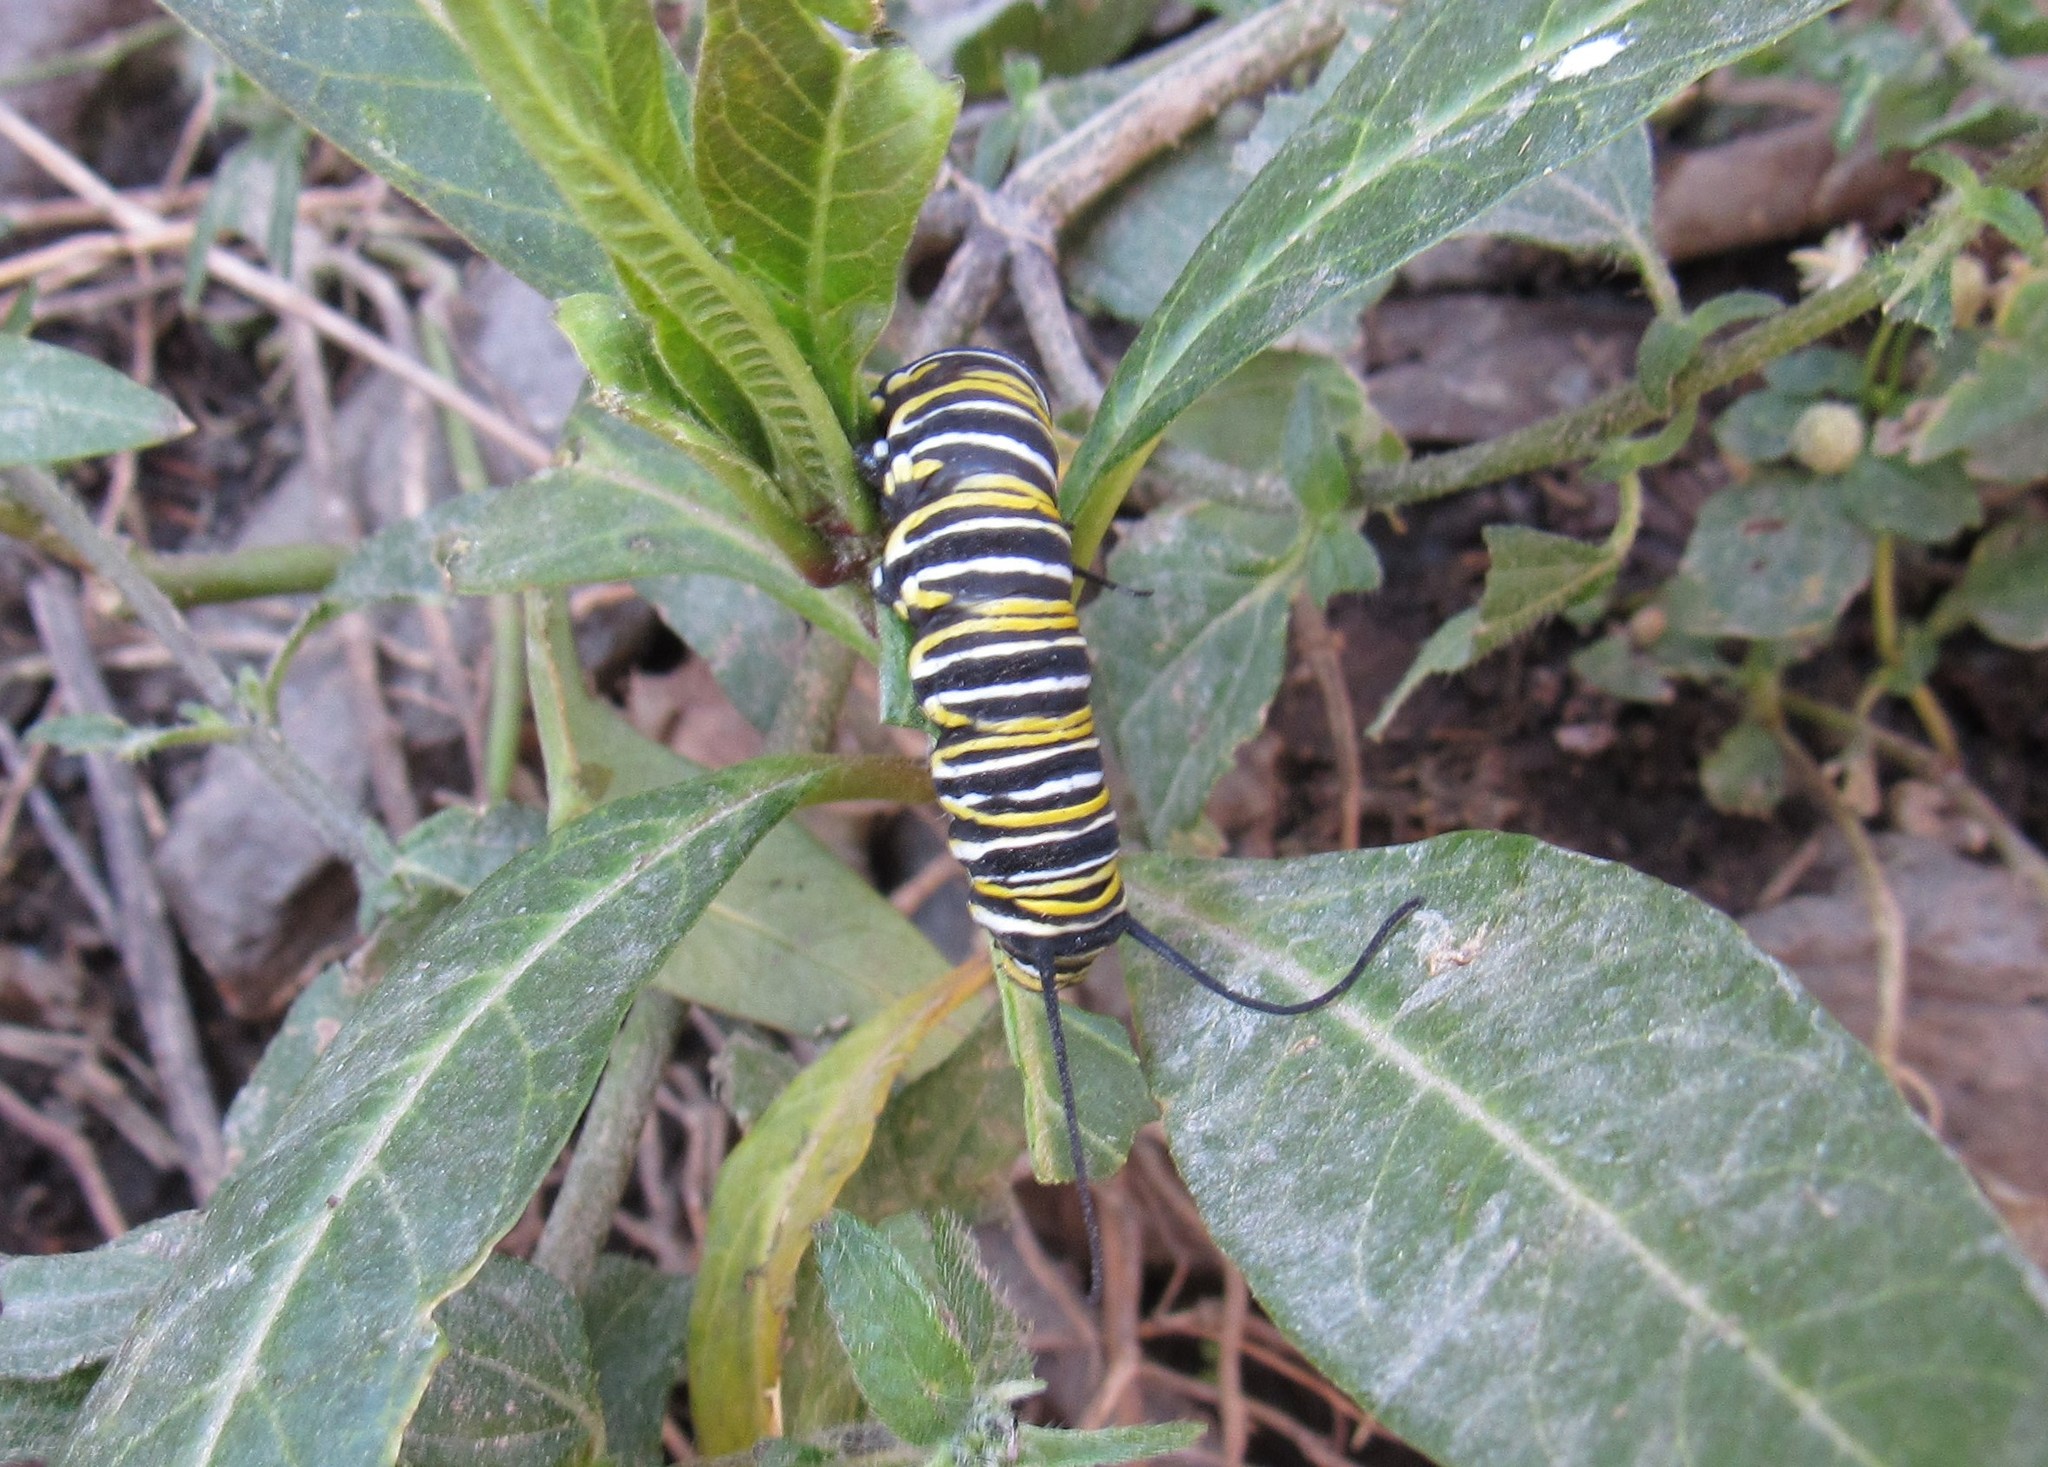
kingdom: Animalia
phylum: Arthropoda
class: Insecta
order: Lepidoptera
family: Nymphalidae
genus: Danaus
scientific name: Danaus plexippus
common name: Monarch
